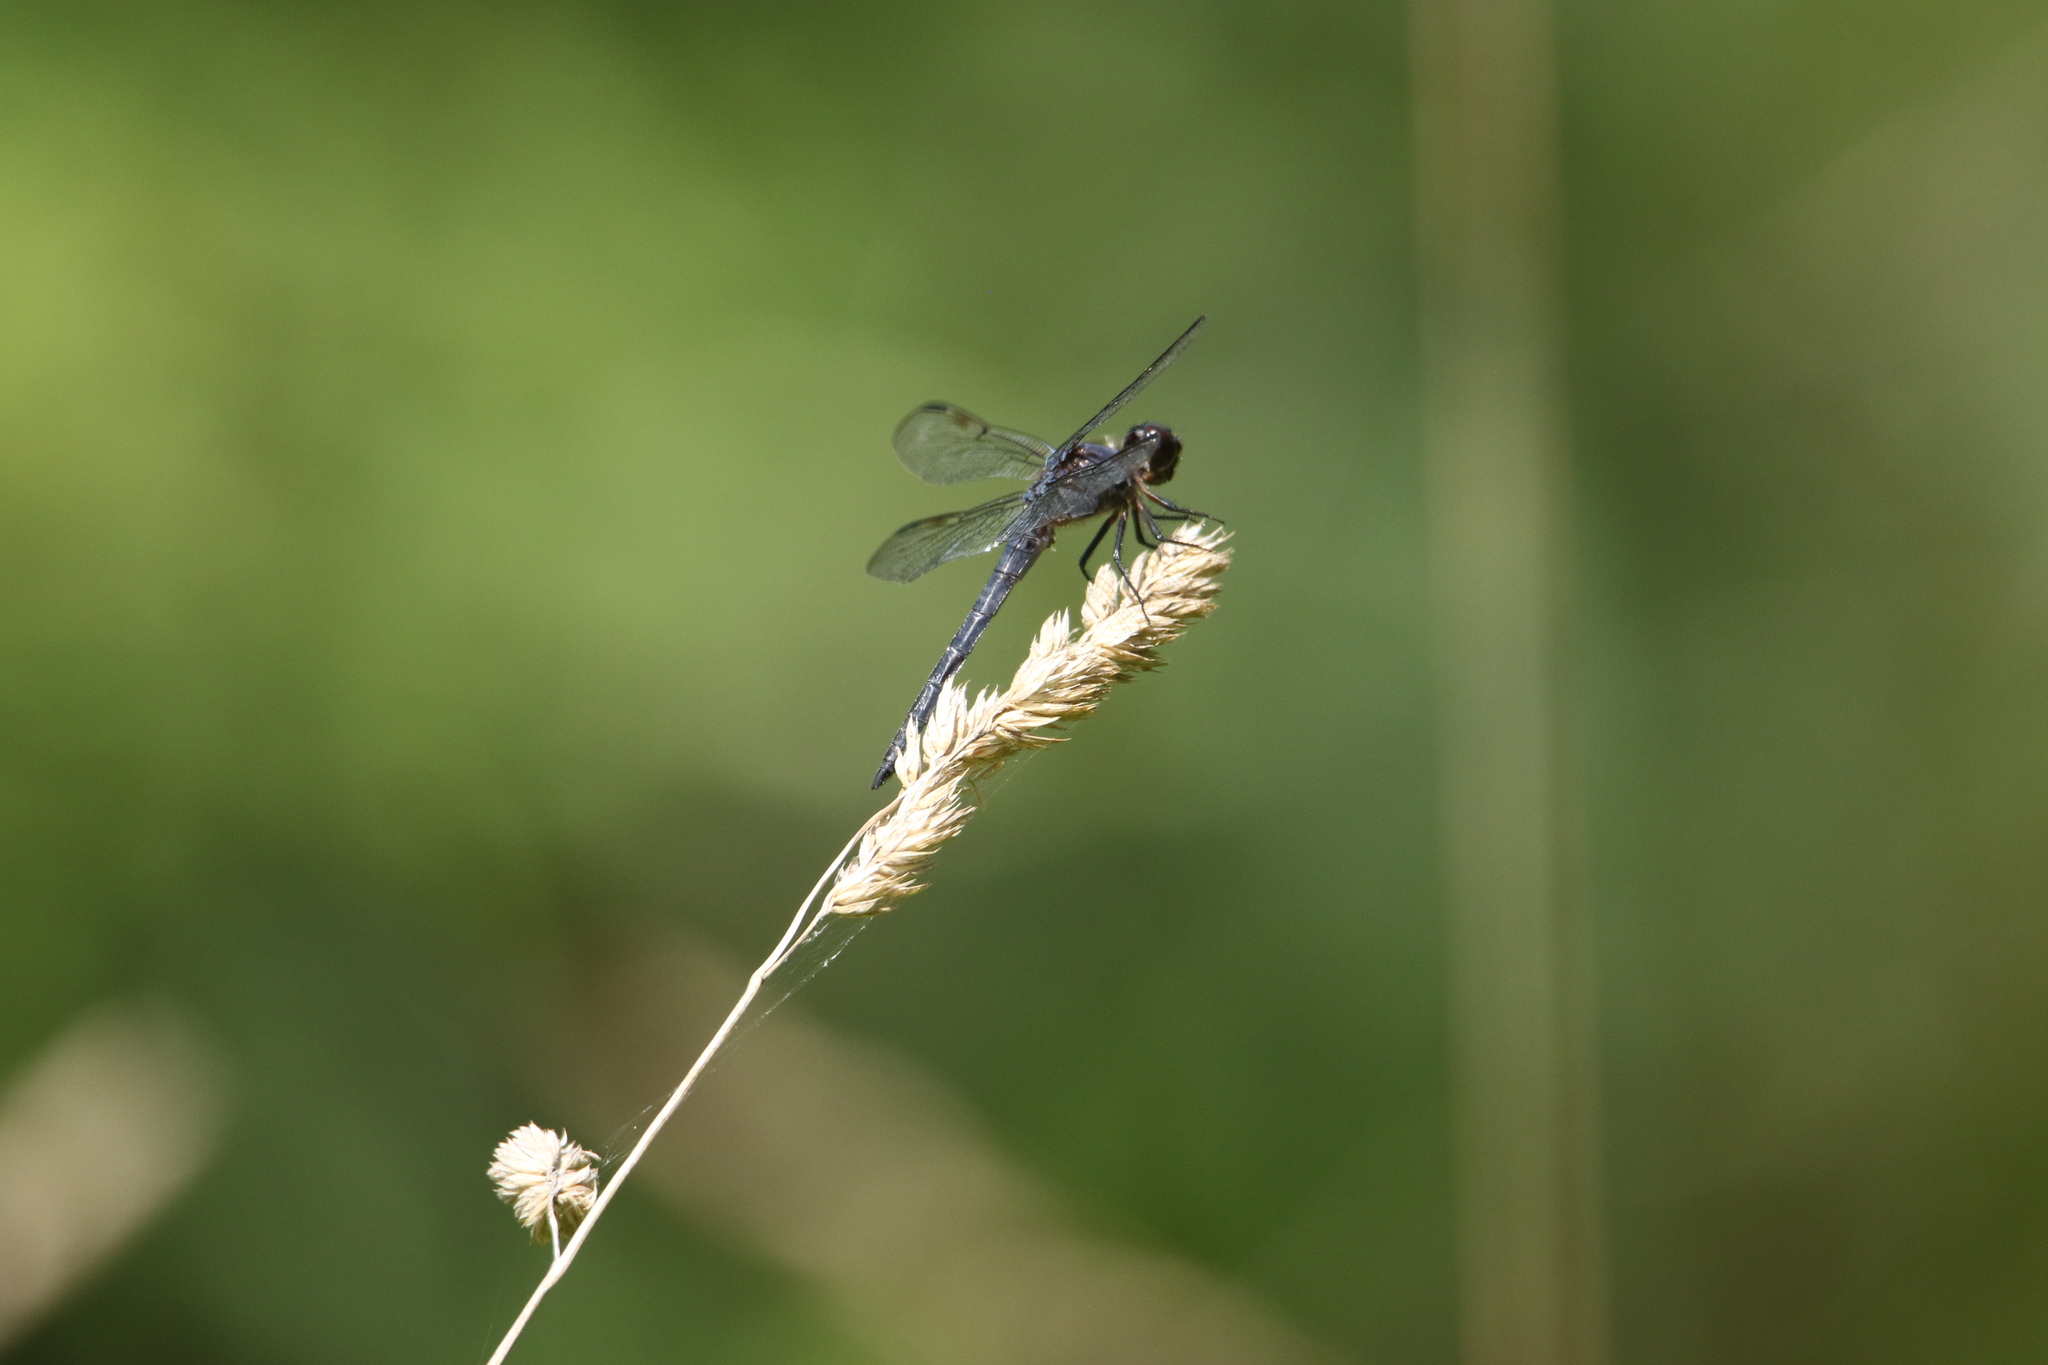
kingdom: Animalia
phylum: Arthropoda
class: Insecta
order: Odonata
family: Libellulidae
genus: Libellula
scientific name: Libellula incesta
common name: Slaty skimmer
